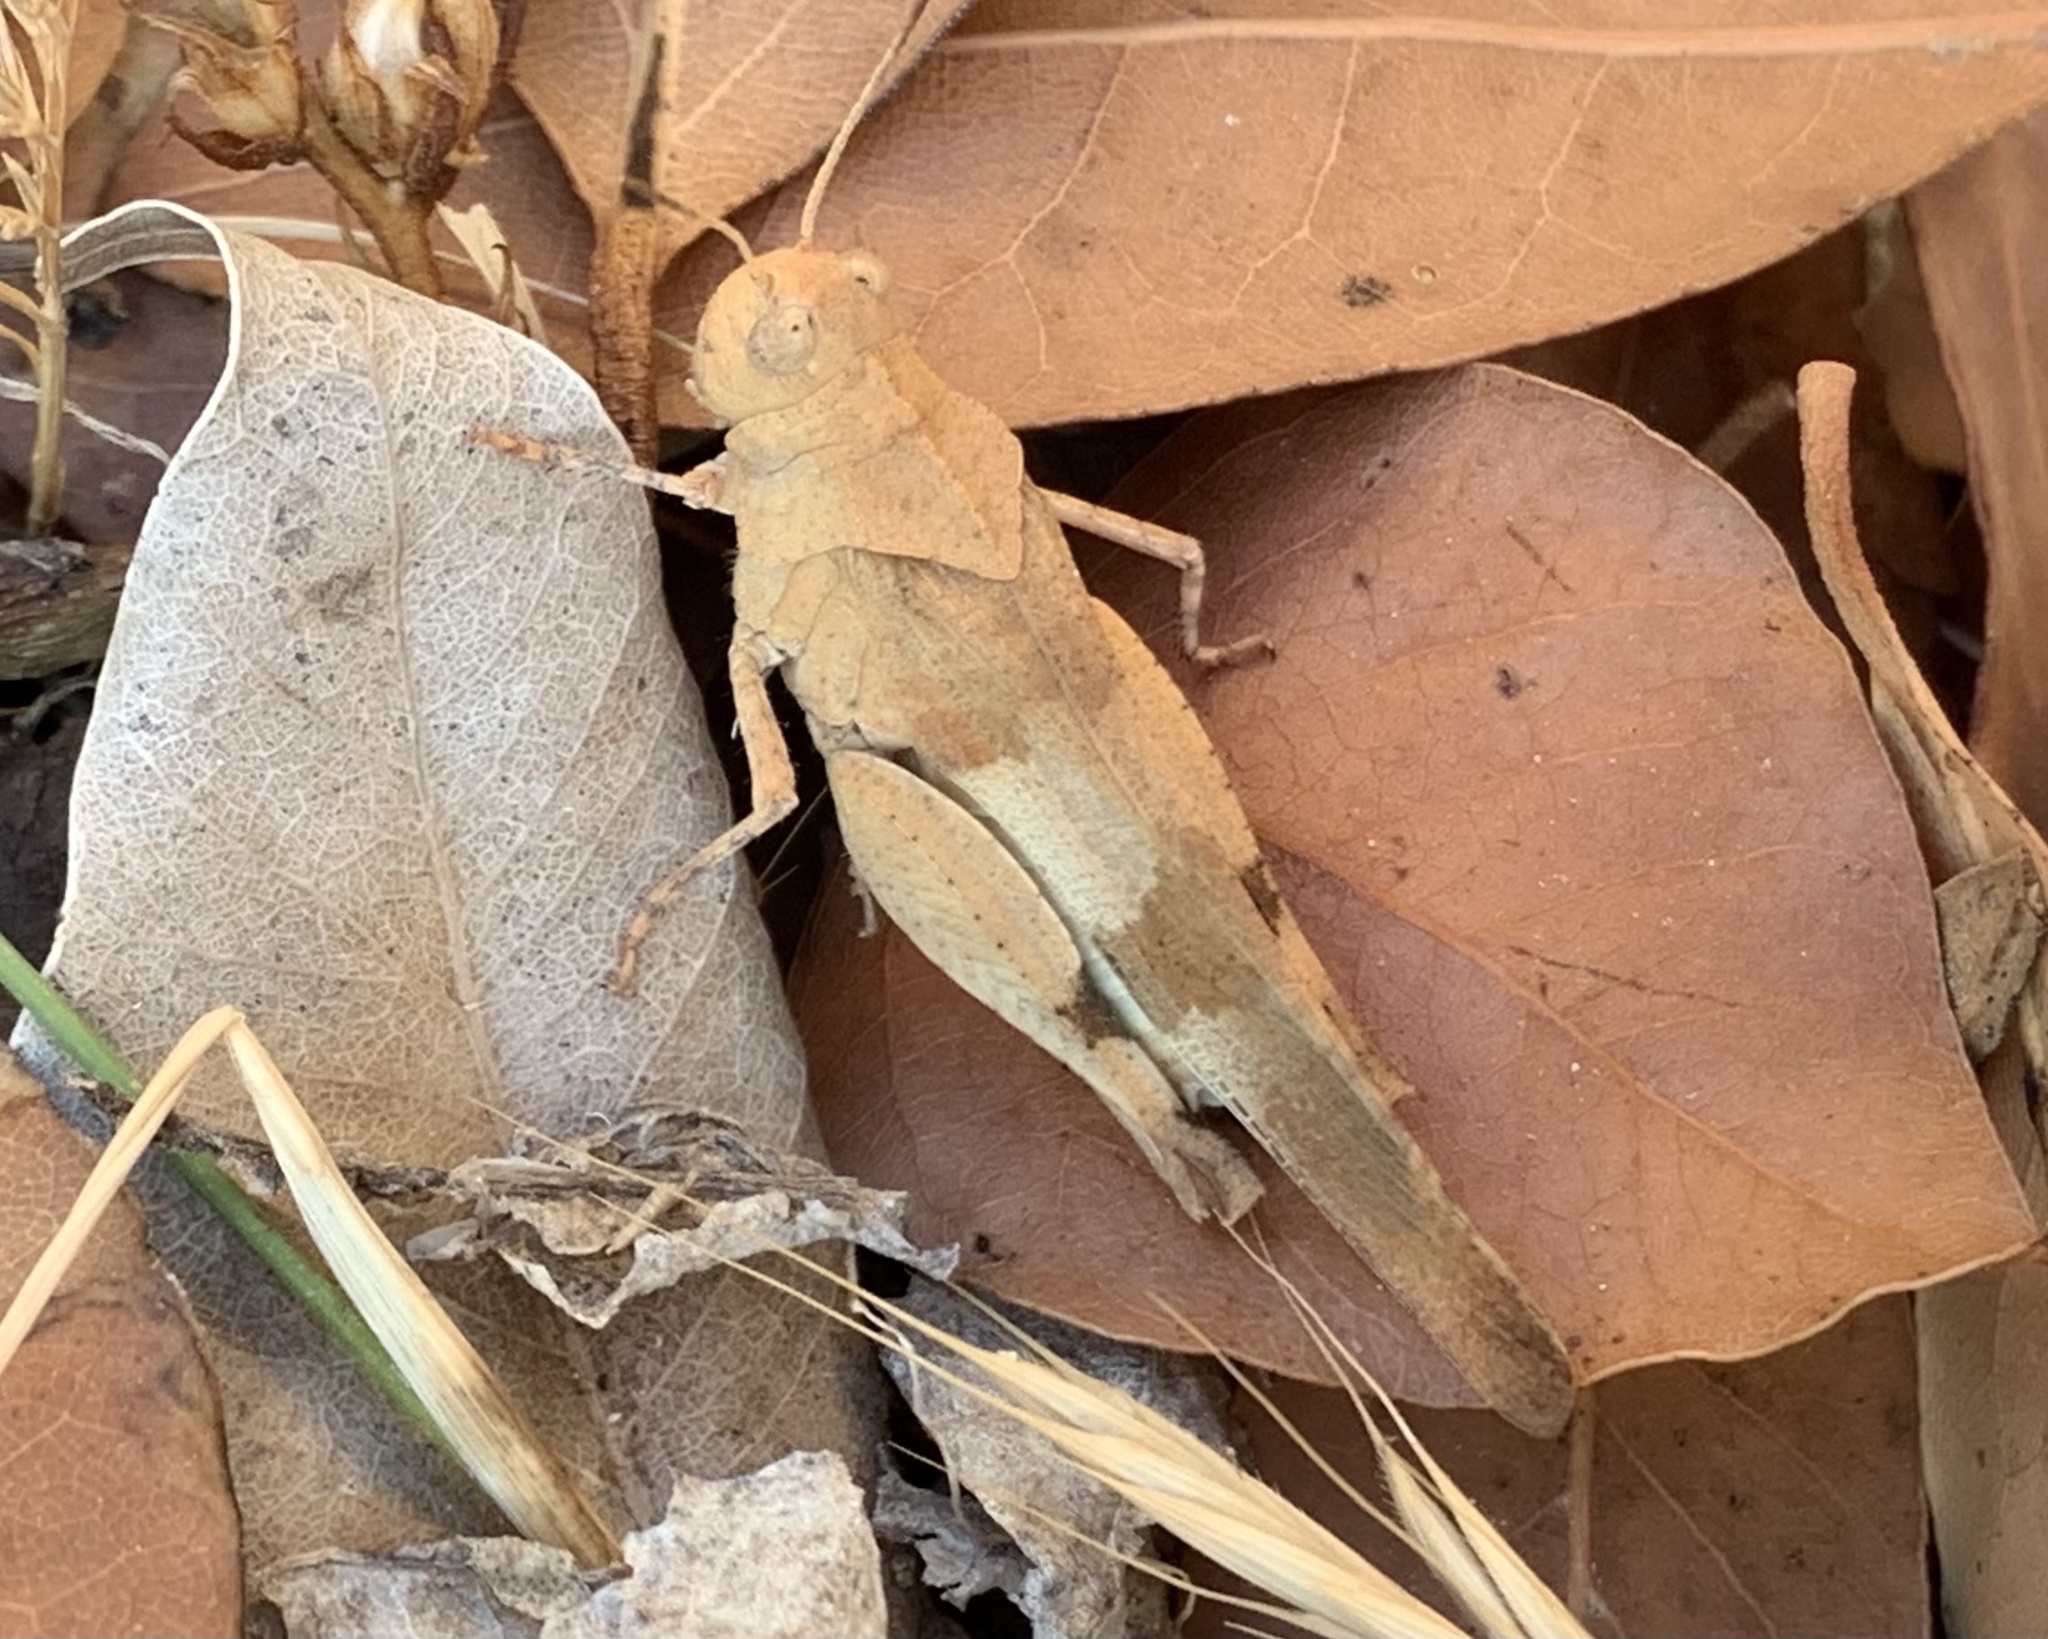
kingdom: Animalia
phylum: Arthropoda
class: Insecta
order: Orthoptera
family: Acrididae
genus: Oedipoda
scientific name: Oedipoda caerulescens
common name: Blue-winged grasshopper
